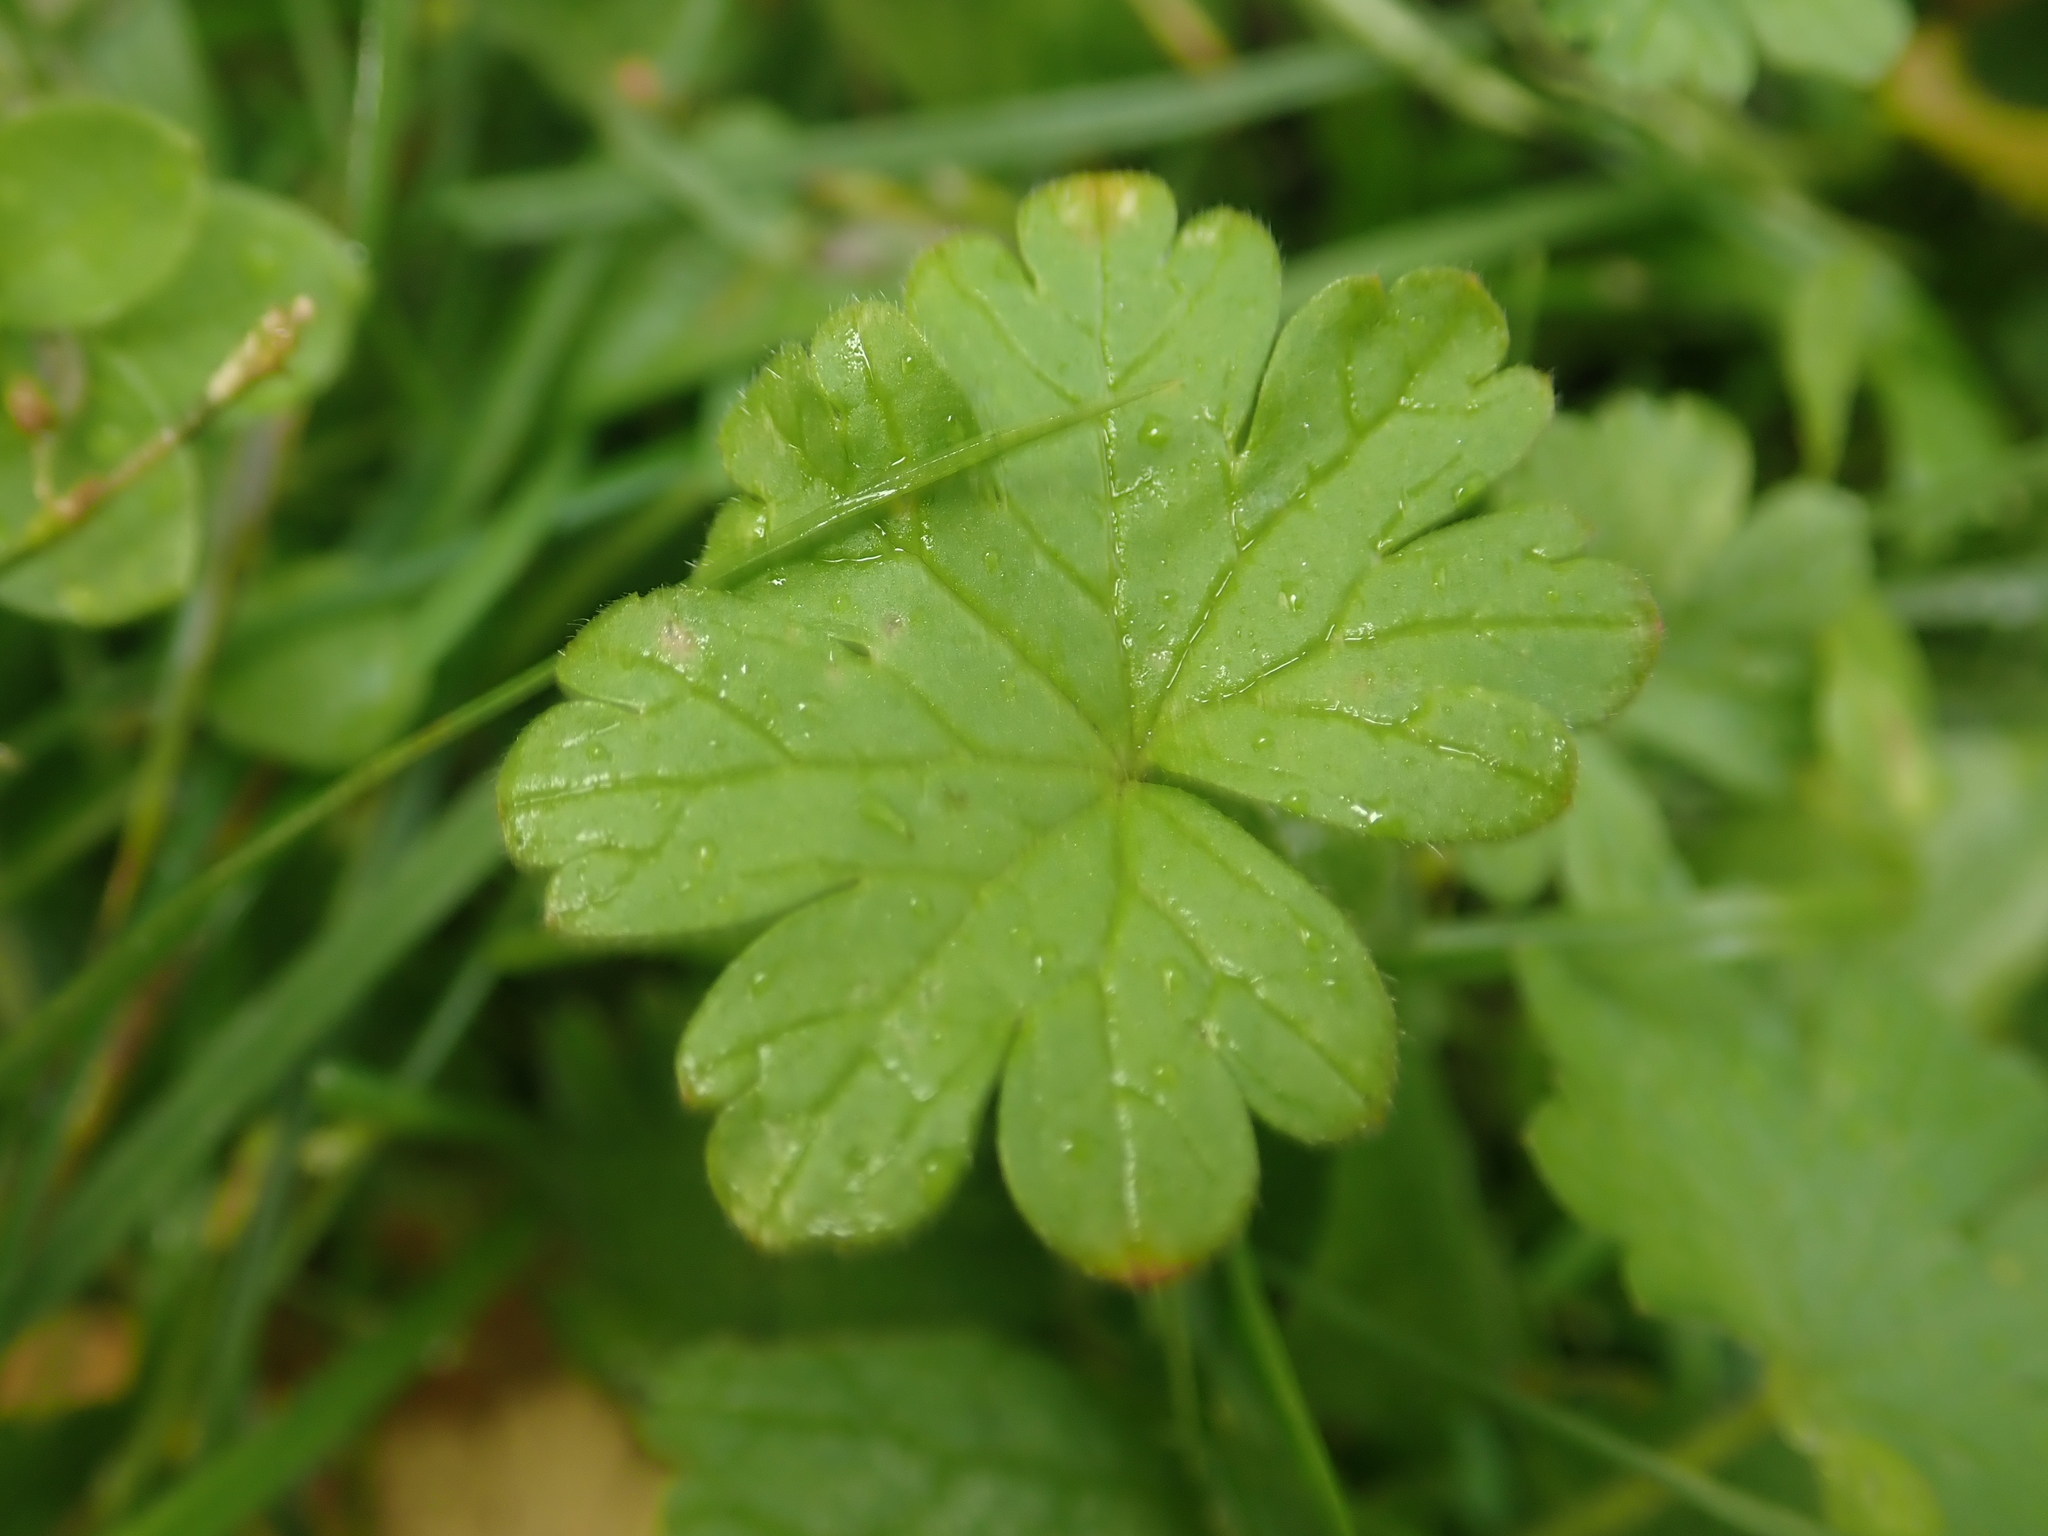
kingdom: Plantae
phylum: Tracheophyta
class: Magnoliopsida
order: Geraniales
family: Geraniaceae
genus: Geranium
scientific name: Geranium molle
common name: Dove's-foot crane's-bill
